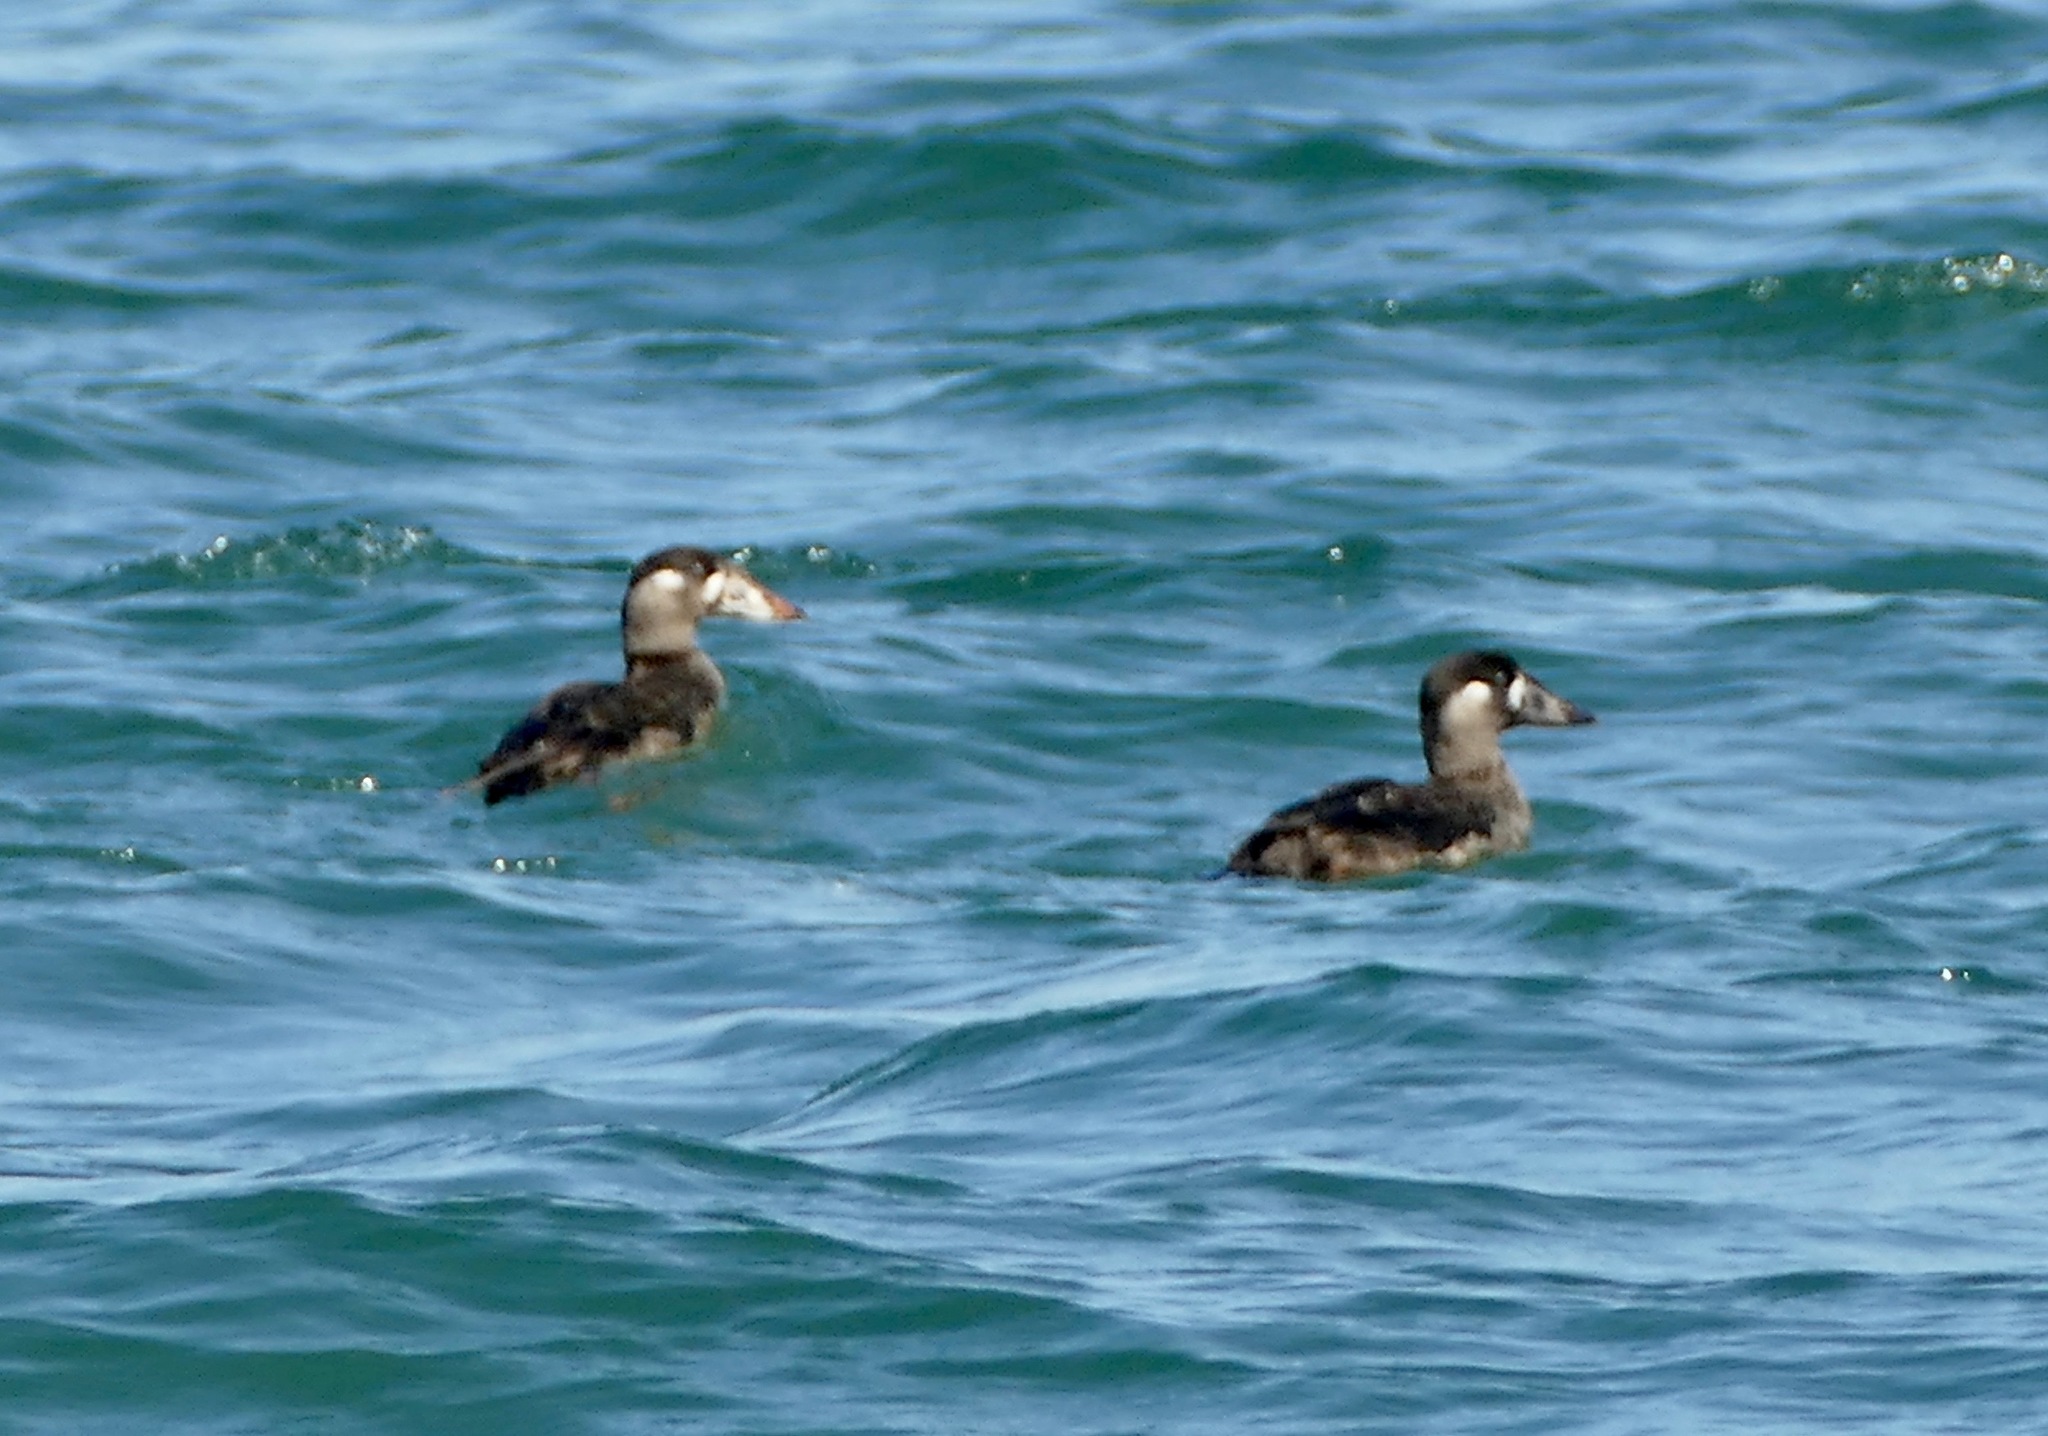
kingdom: Animalia
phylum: Chordata
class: Aves
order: Anseriformes
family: Anatidae
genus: Melanitta
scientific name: Melanitta perspicillata
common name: Surf scoter
